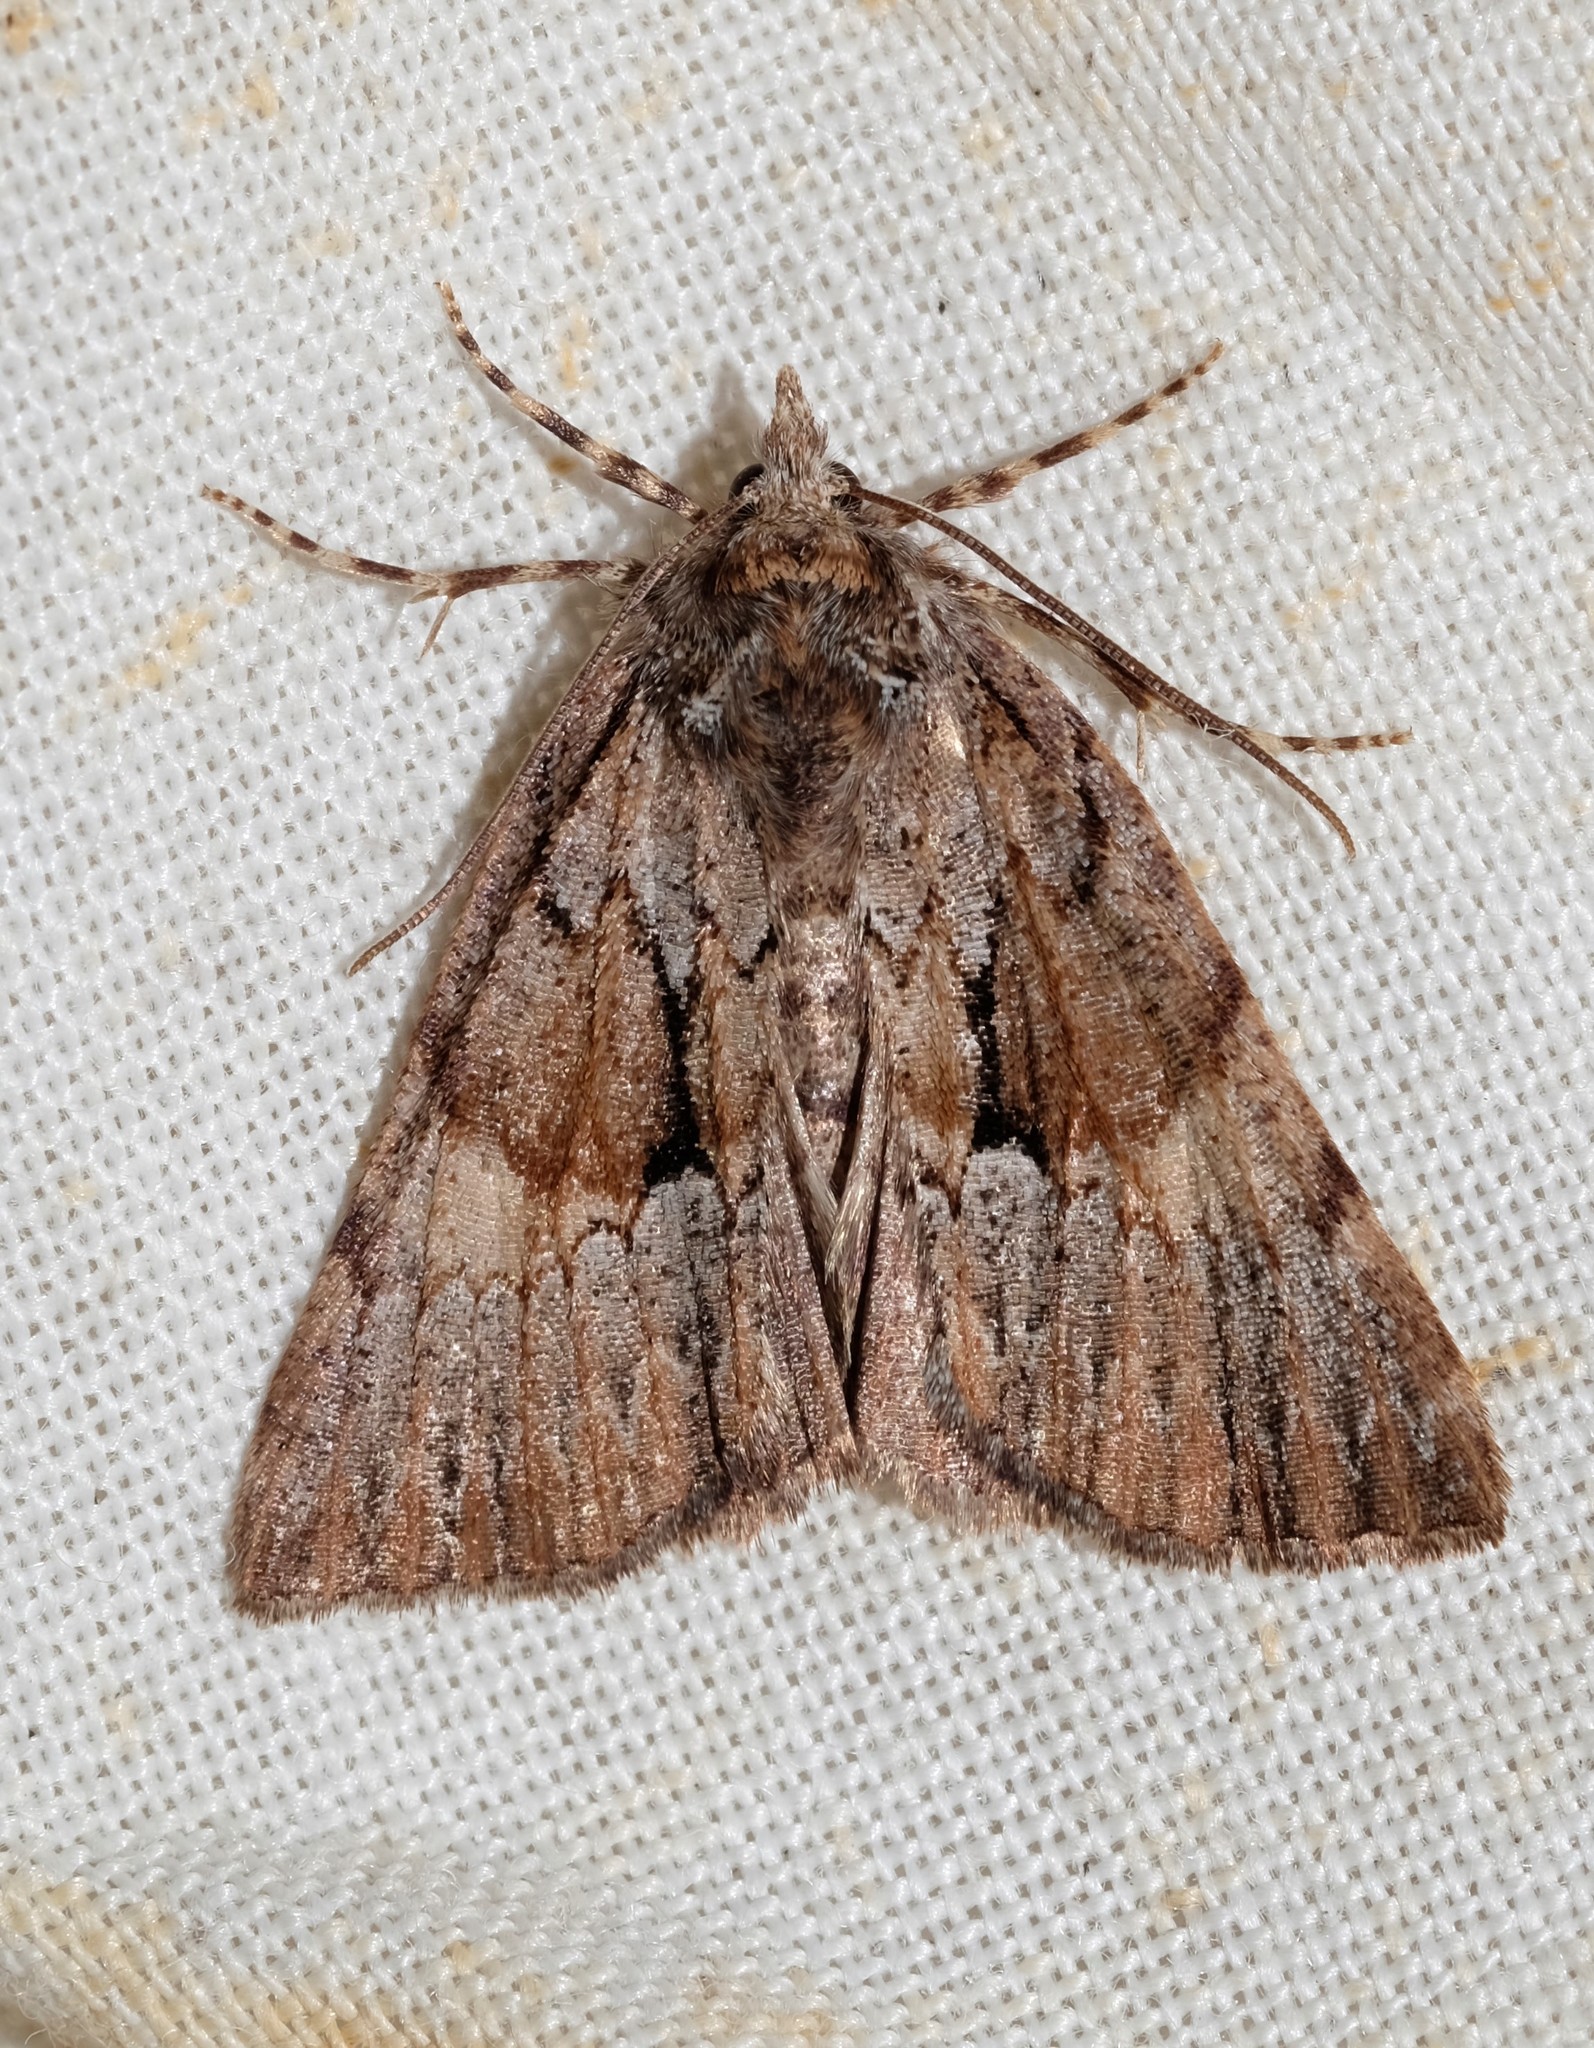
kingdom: Animalia
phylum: Arthropoda
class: Insecta
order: Lepidoptera
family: Geometridae
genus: Smyriodes
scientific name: Smyriodes
